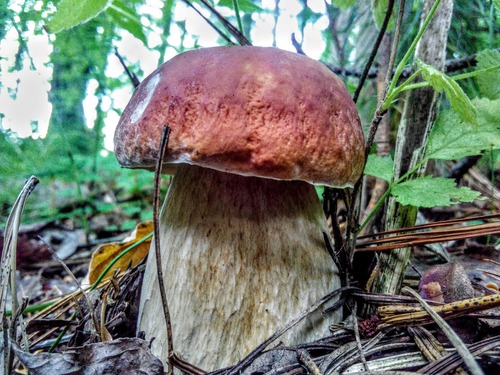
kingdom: Fungi
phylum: Basidiomycota
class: Agaricomycetes
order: Boletales
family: Boletaceae
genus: Boletus
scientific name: Boletus edulis
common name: Cep
